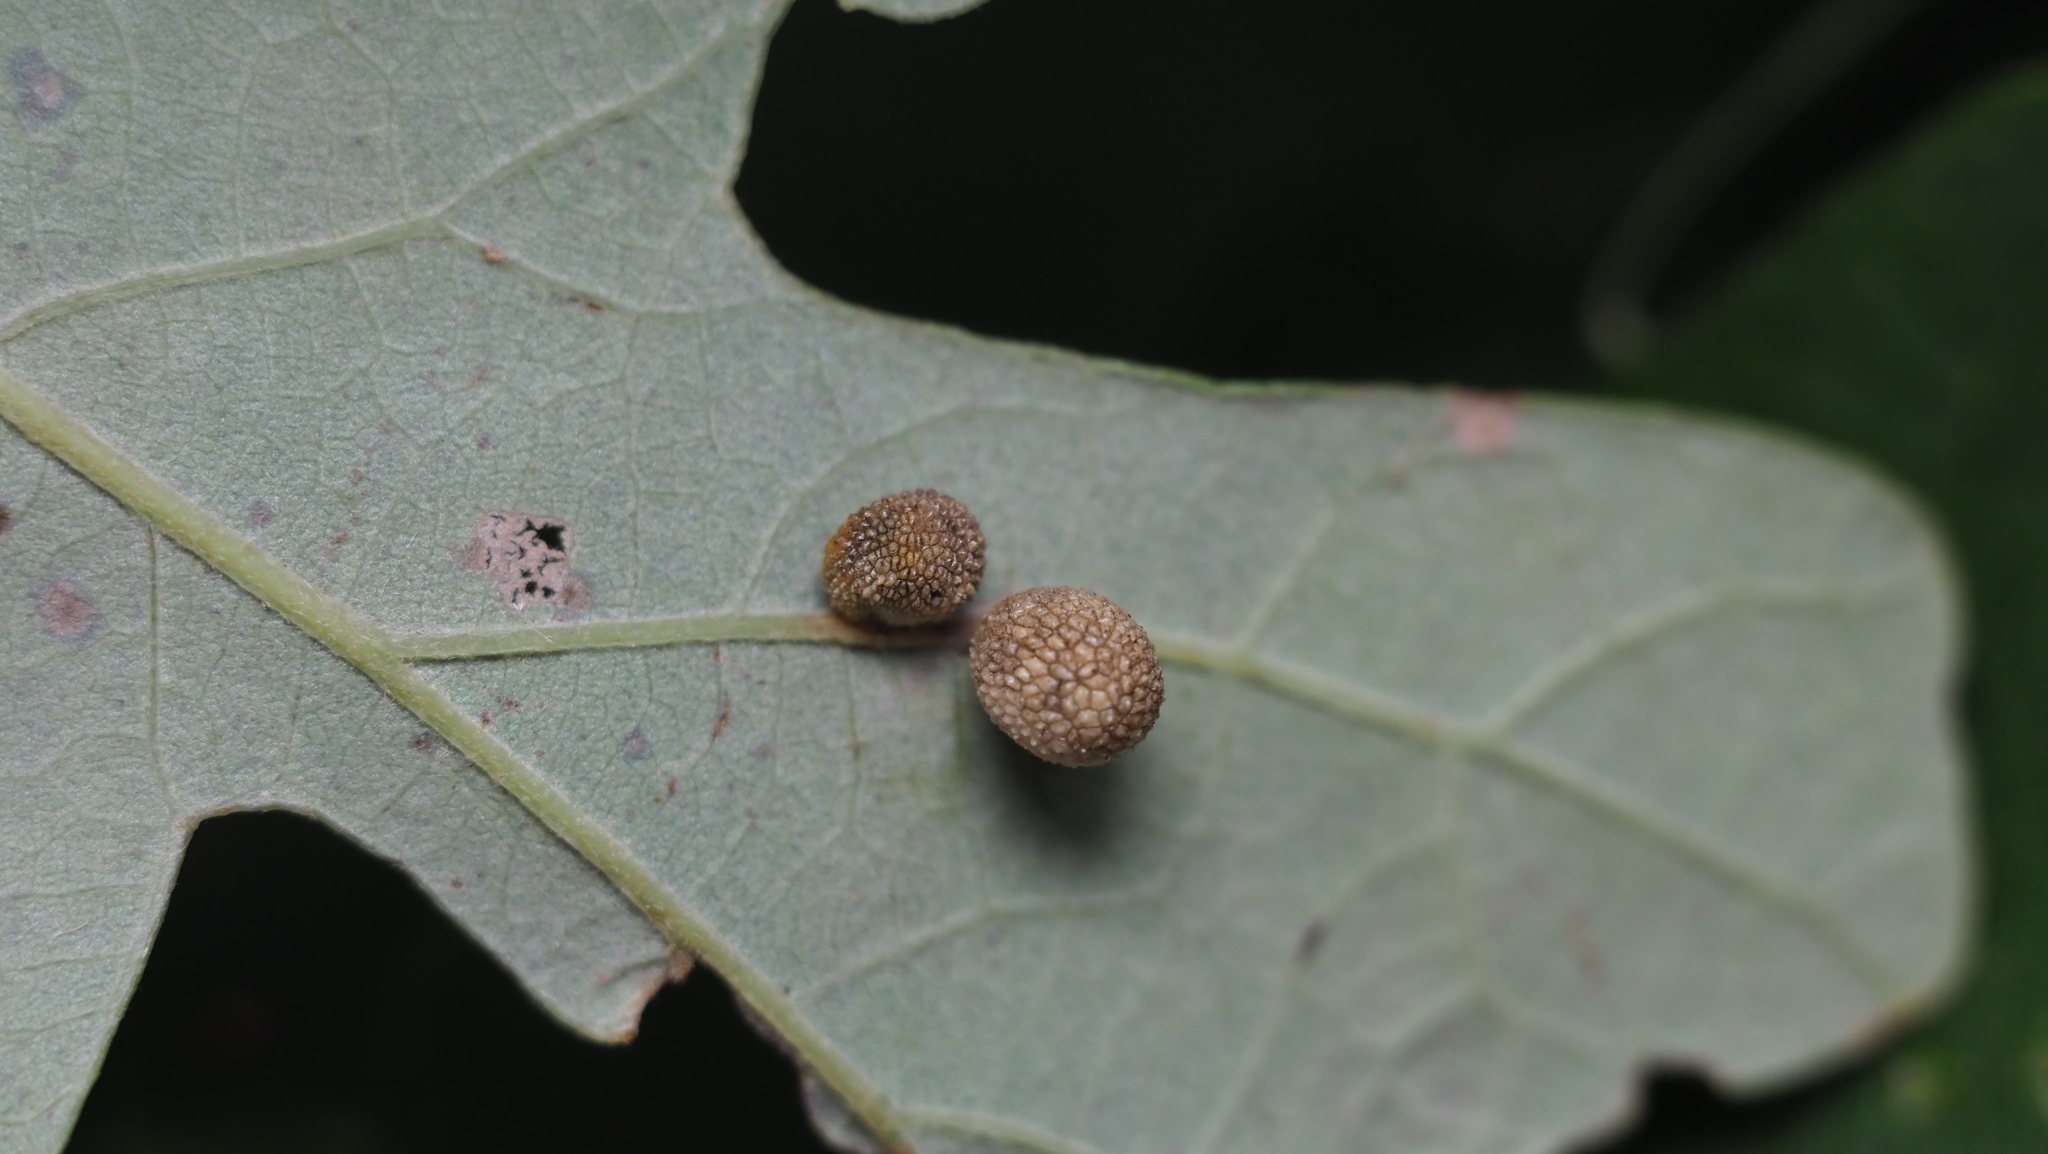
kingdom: Animalia
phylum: Arthropoda
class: Insecta
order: Hymenoptera
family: Cynipidae
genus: Acraspis
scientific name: Acraspis quercushirta
